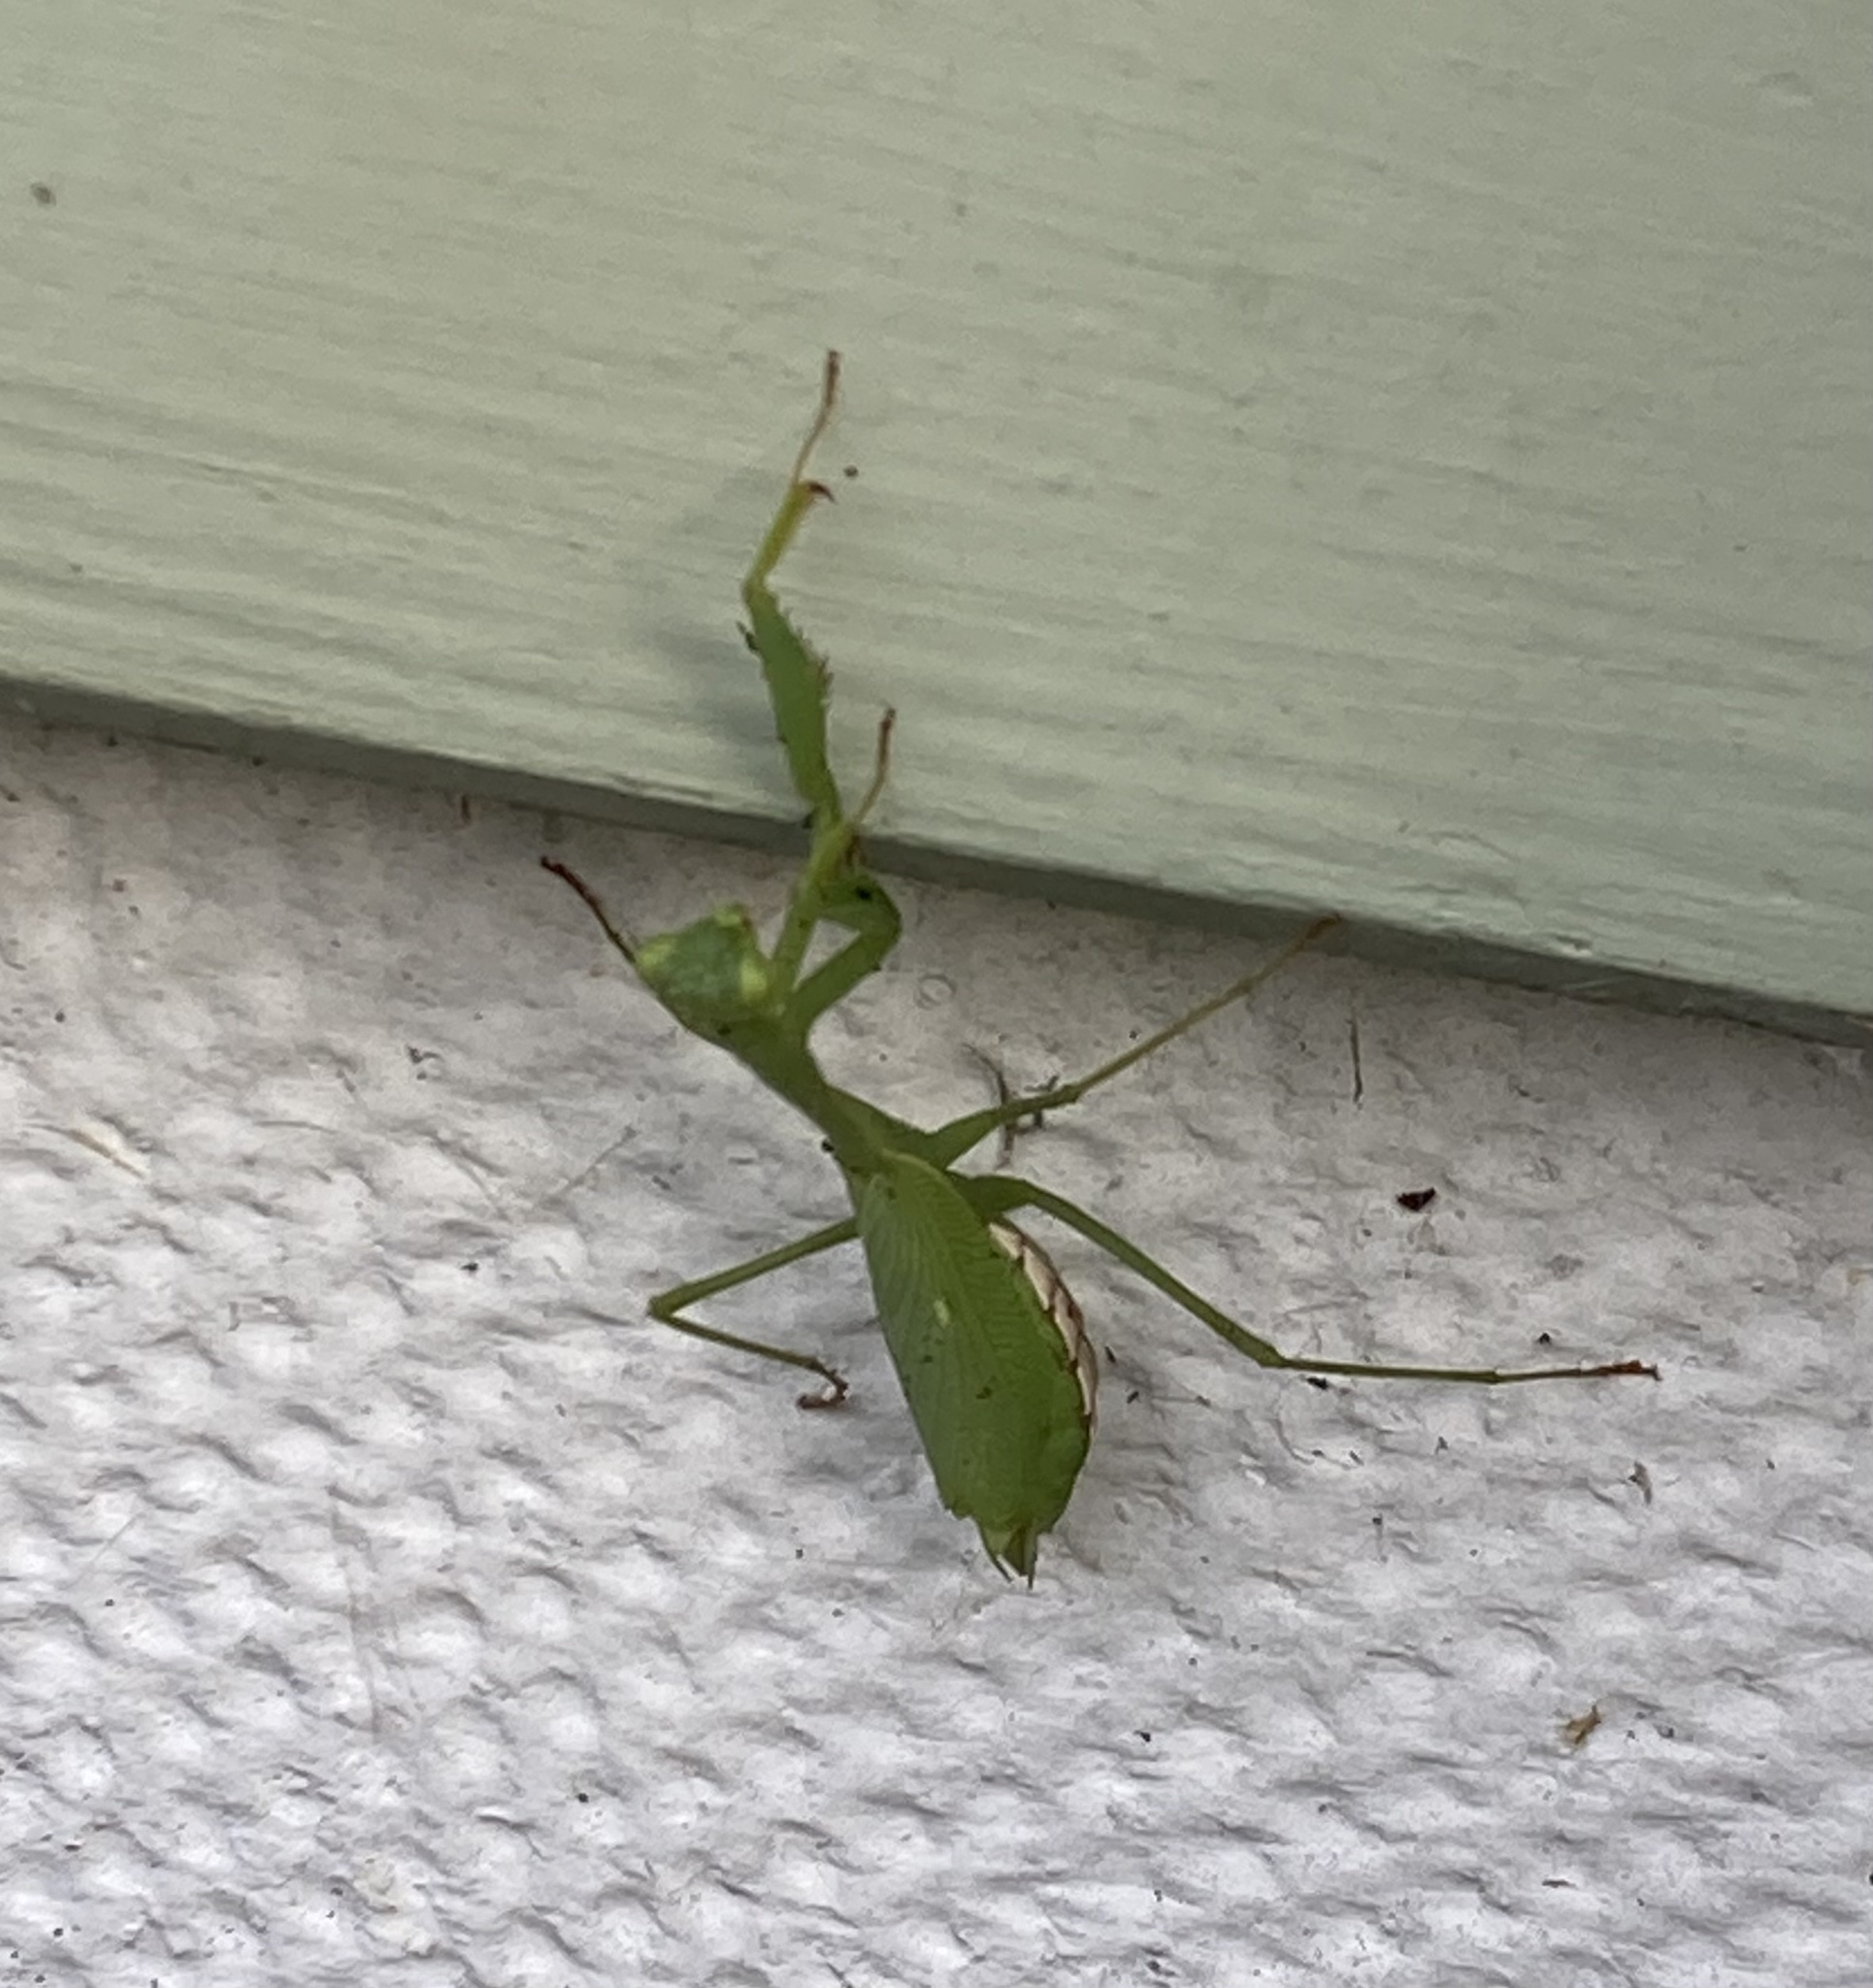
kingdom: Animalia
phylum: Arthropoda
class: Insecta
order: Mantodea
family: Miomantidae
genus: Miomantis
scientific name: Miomantis caffra
